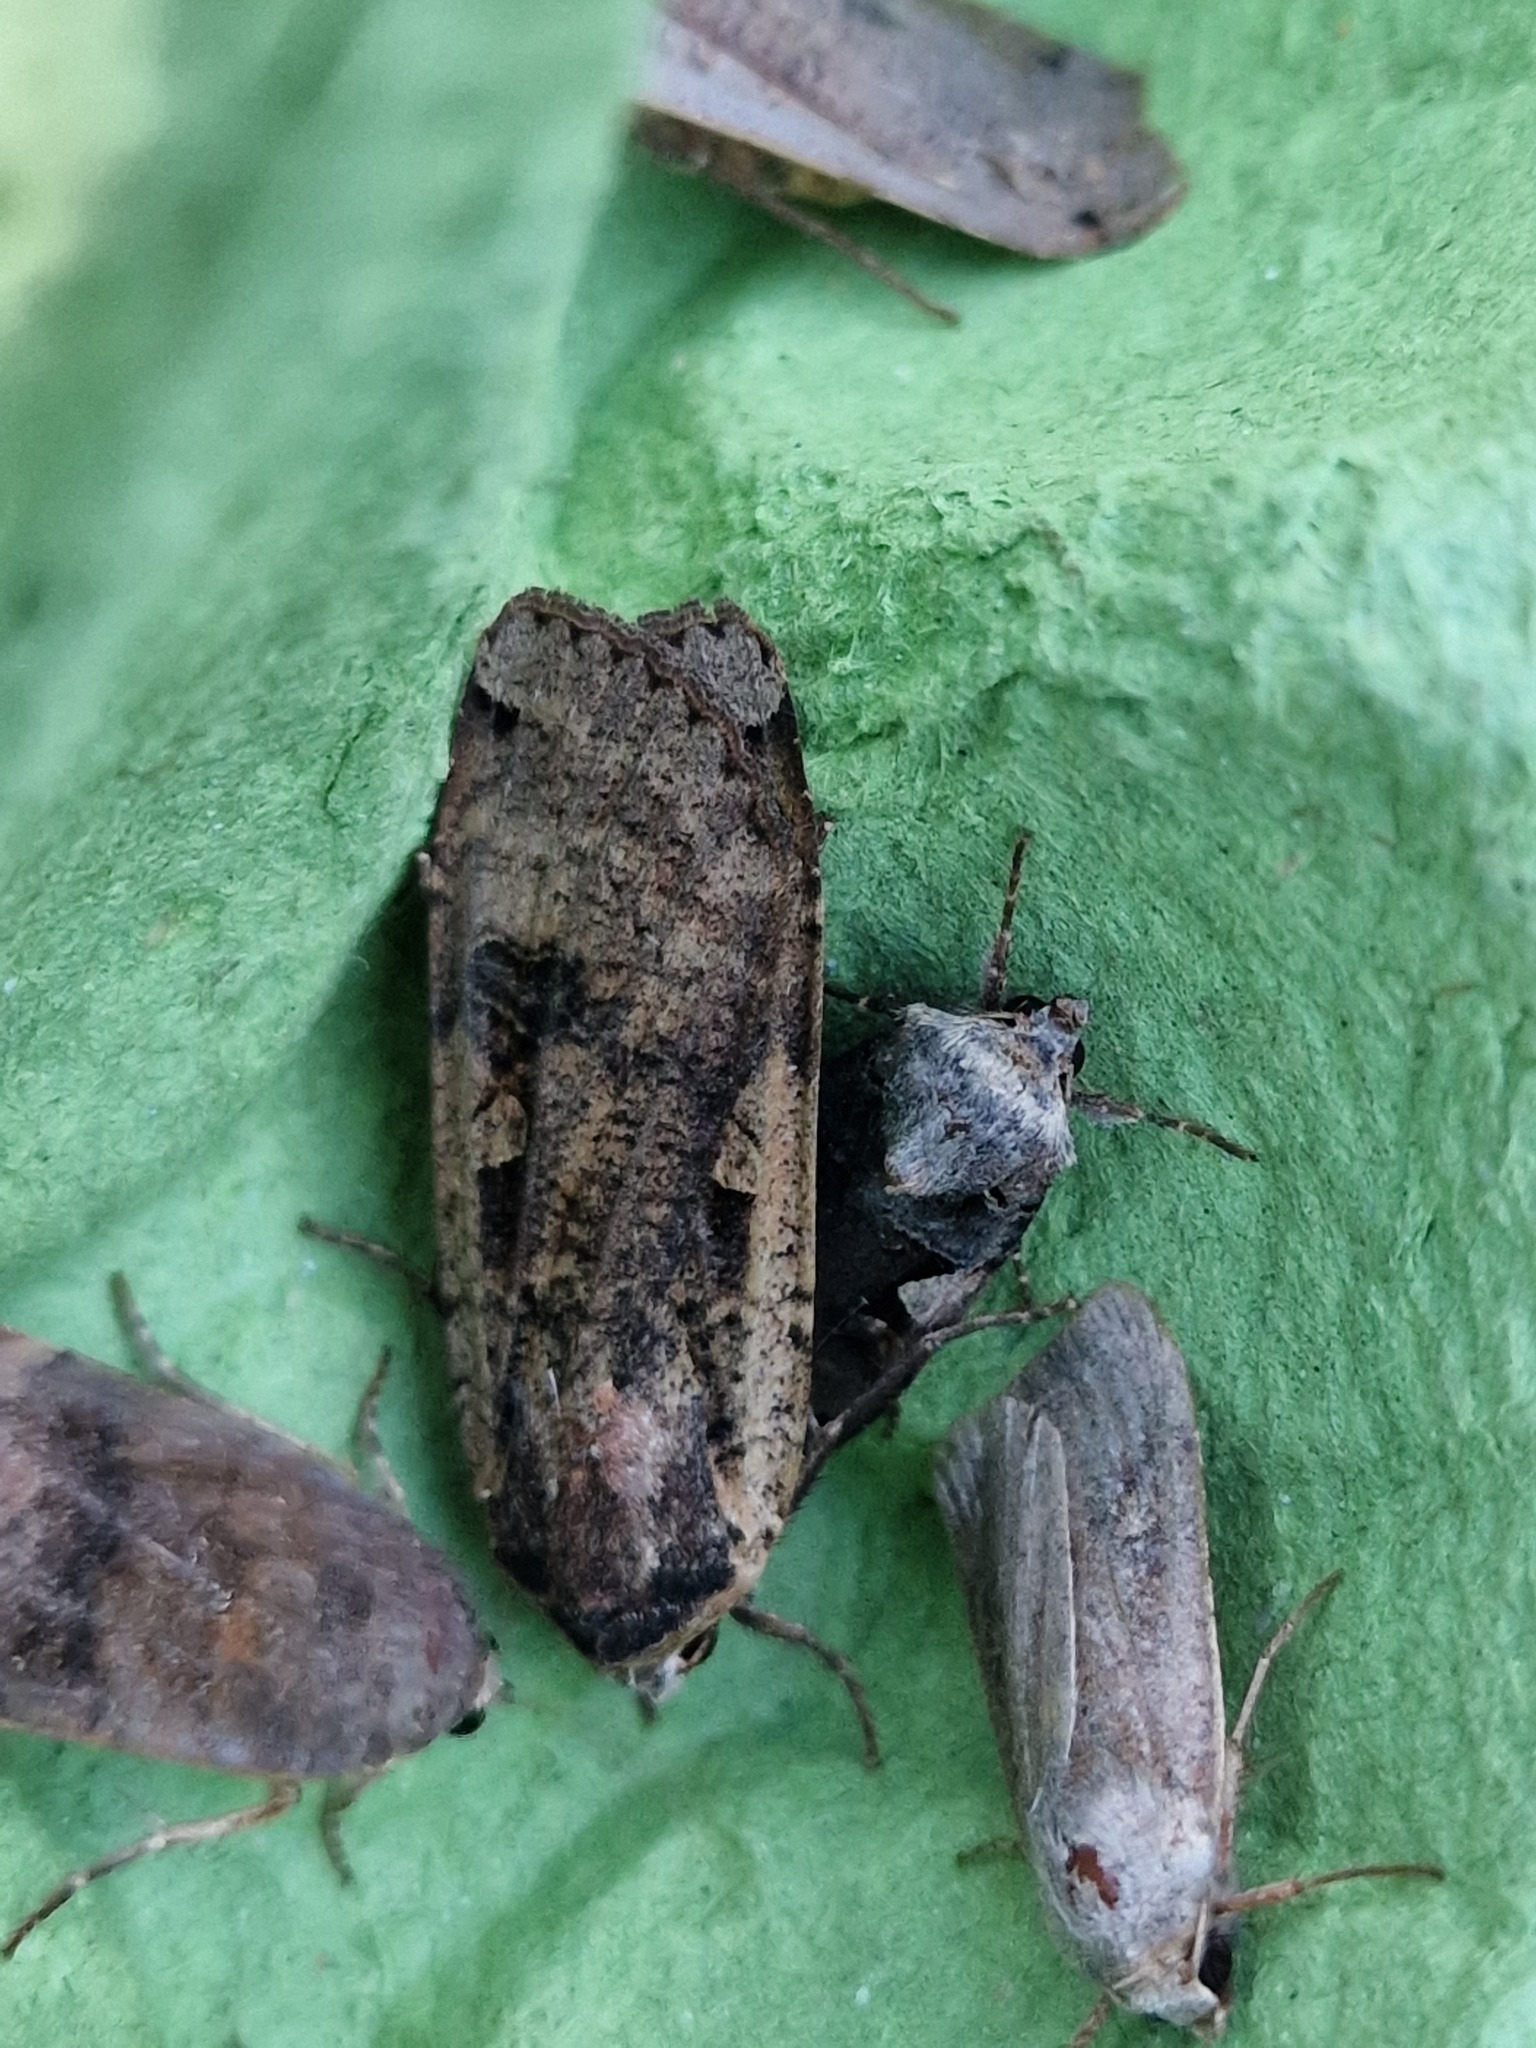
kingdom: Animalia
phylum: Arthropoda
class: Insecta
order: Lepidoptera
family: Noctuidae
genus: Noctua
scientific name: Noctua pronuba
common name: Large yellow underwing
